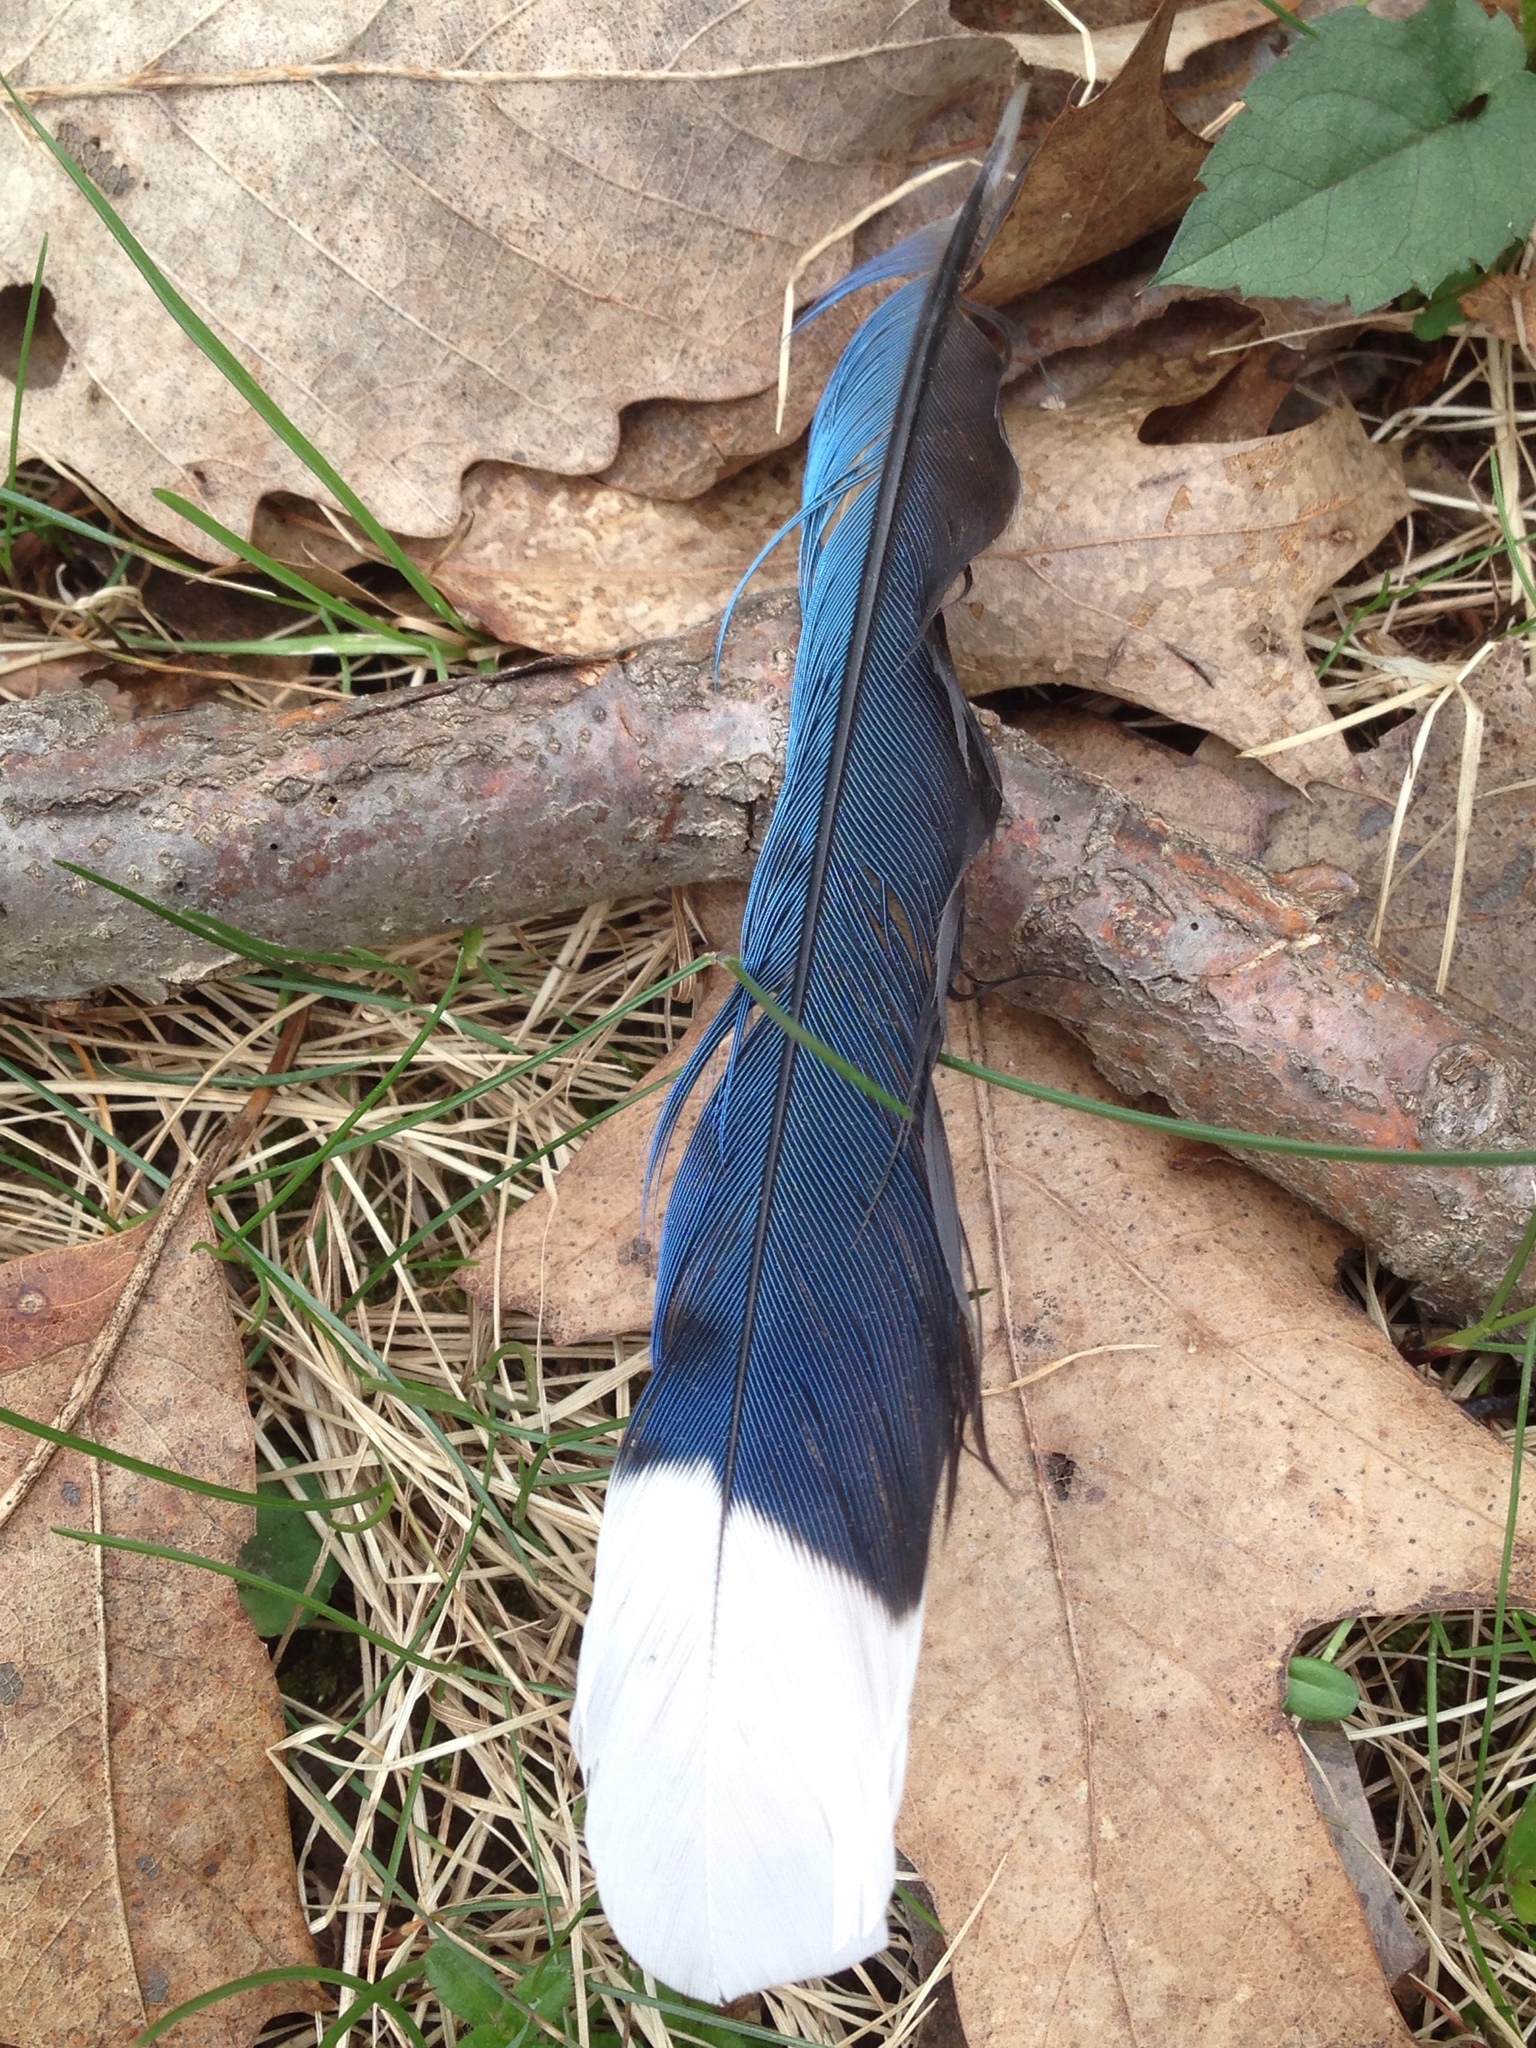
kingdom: Animalia
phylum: Chordata
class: Aves
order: Passeriformes
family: Corvidae
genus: Cyanocitta
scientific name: Cyanocitta cristata
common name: Blue jay
